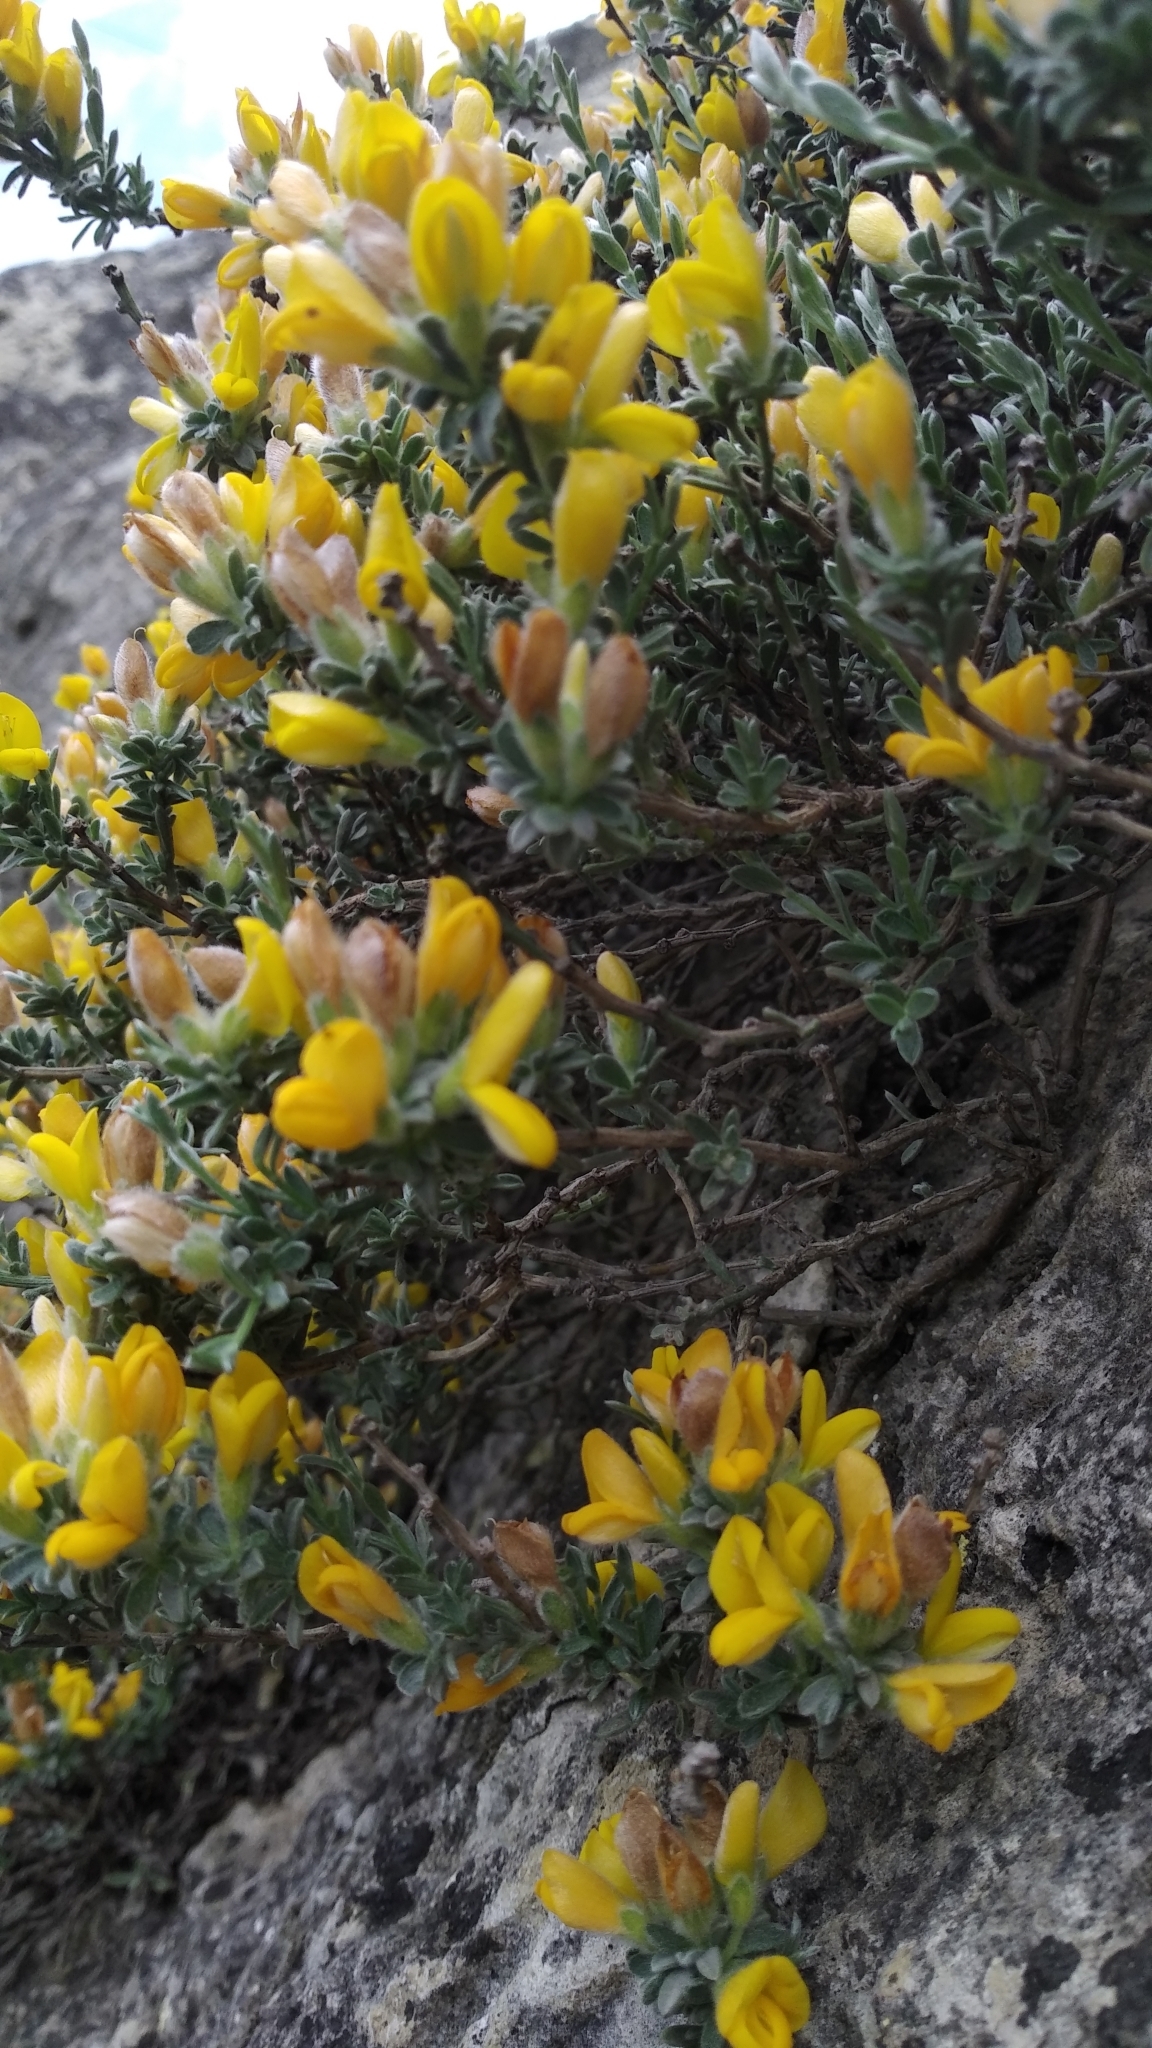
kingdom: Plantae
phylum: Tracheophyta
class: Magnoliopsida
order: Fabales
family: Fabaceae
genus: Genista
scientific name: Genista albida
